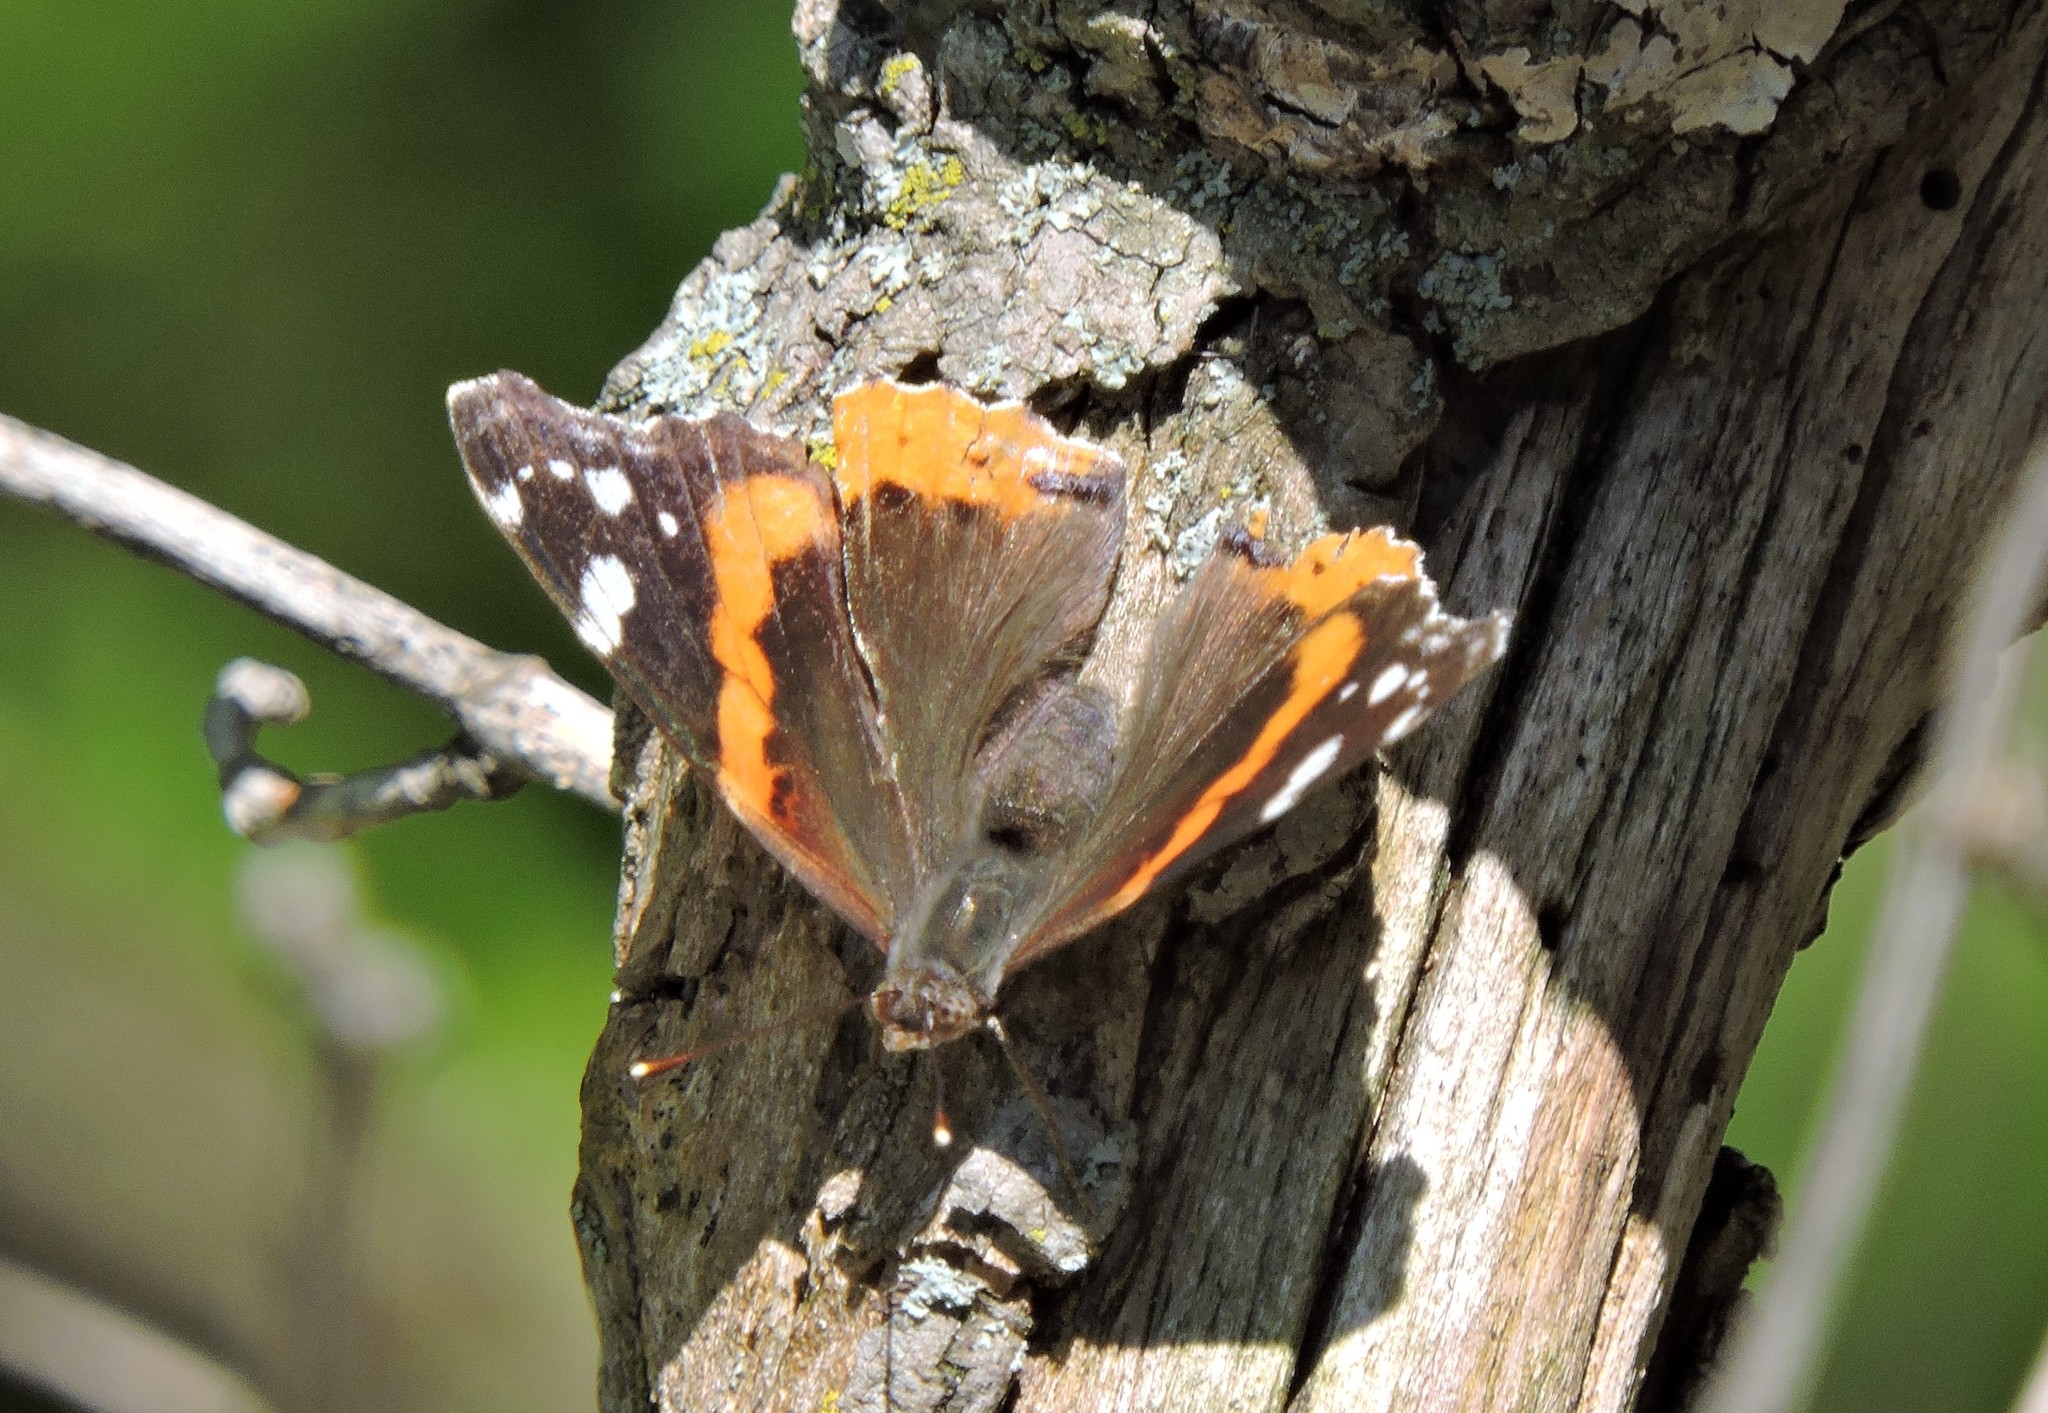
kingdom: Animalia
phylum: Arthropoda
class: Insecta
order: Lepidoptera
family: Nymphalidae
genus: Vanessa
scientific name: Vanessa atalanta
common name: Red admiral
